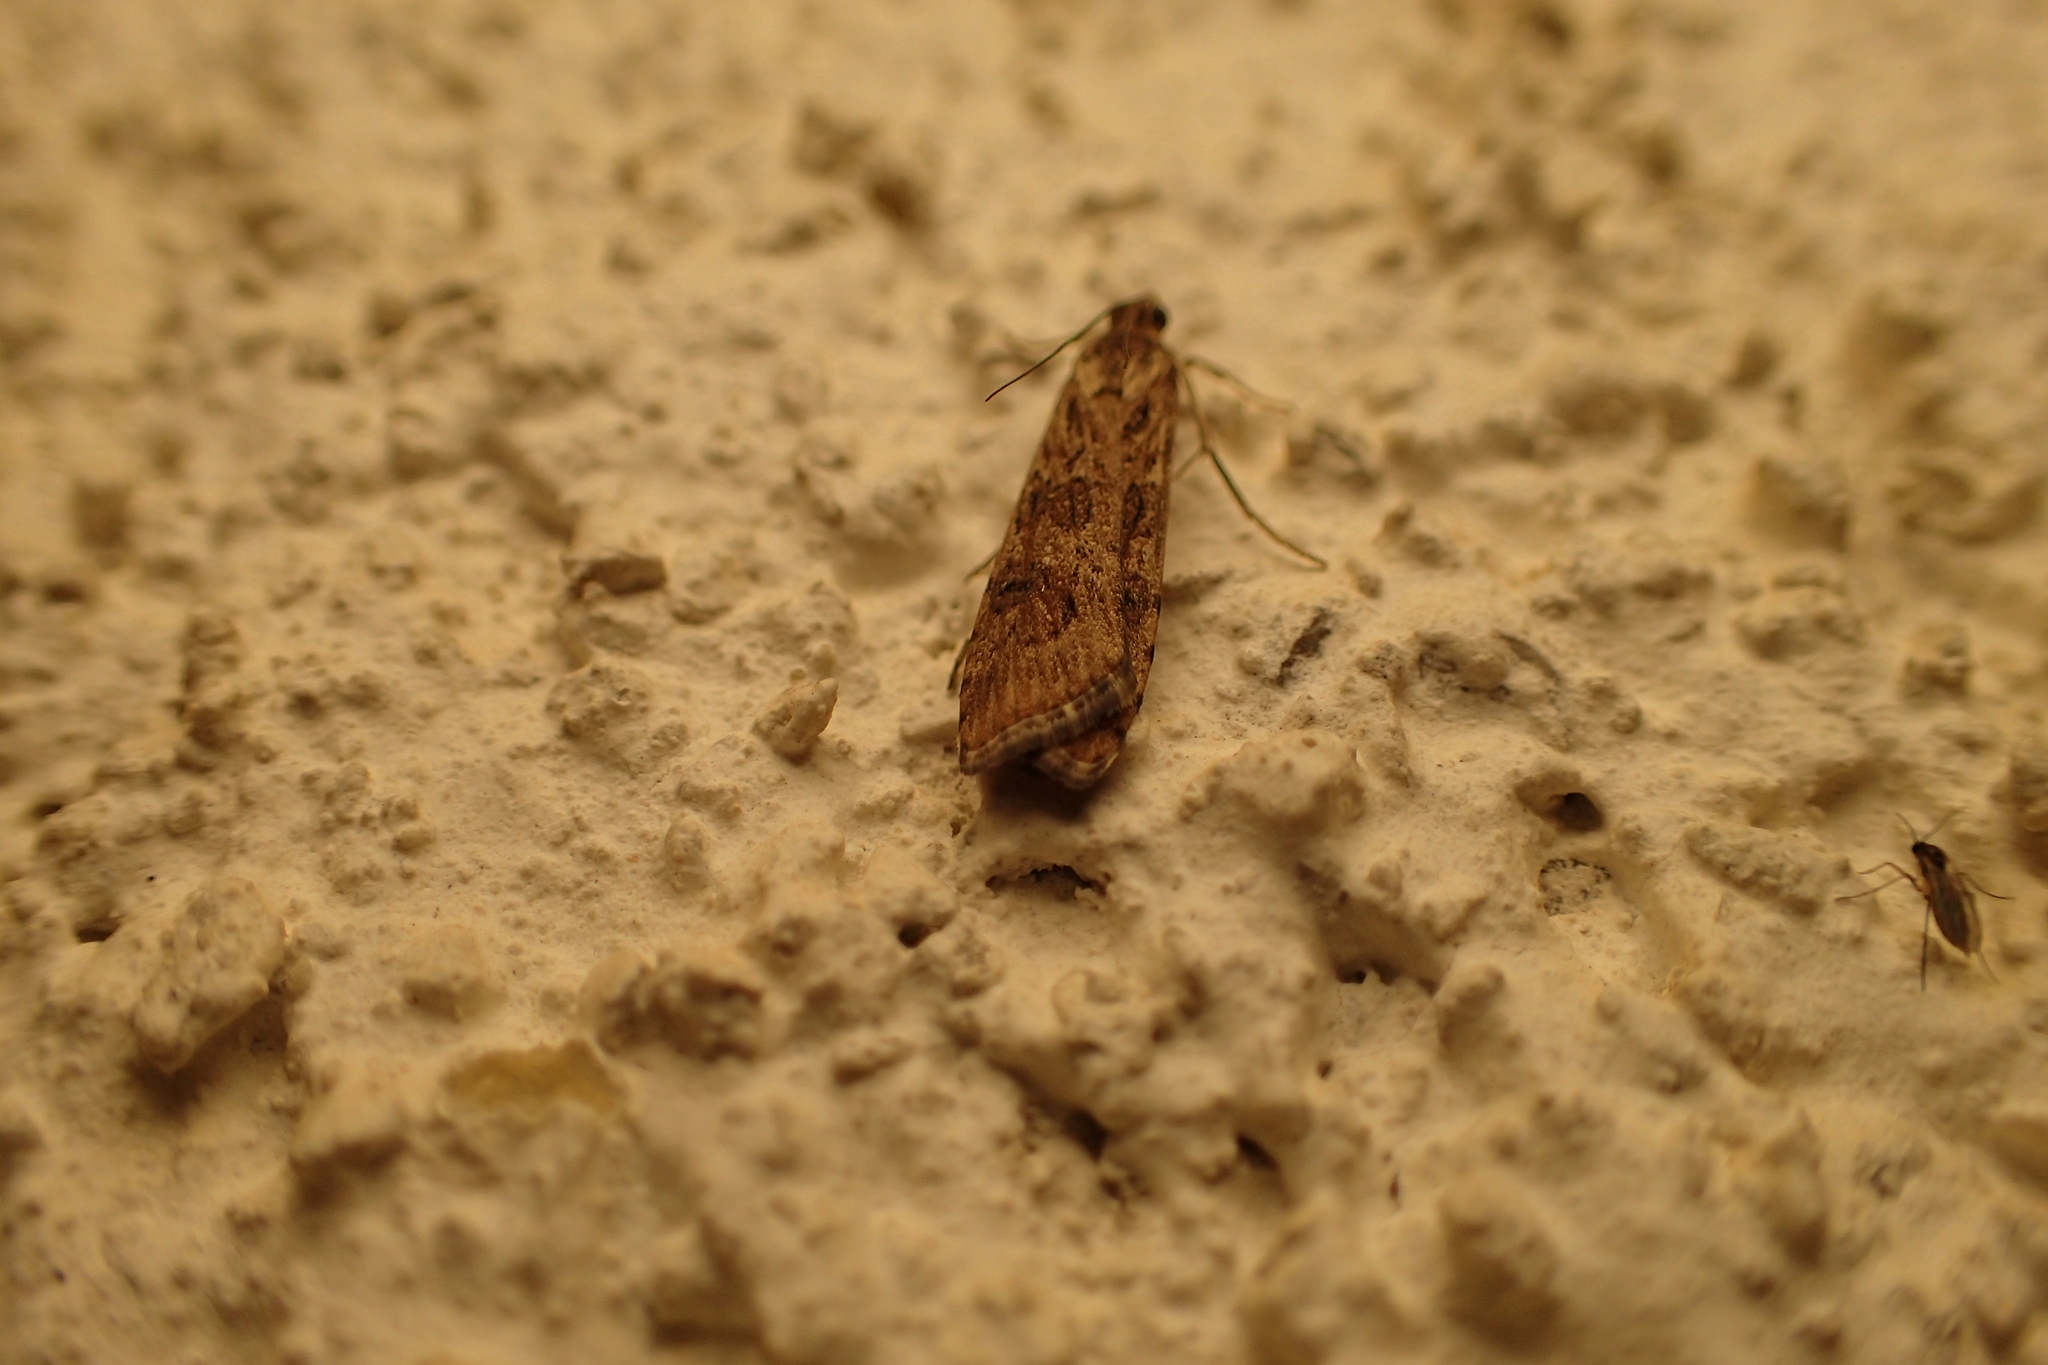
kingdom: Animalia
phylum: Arthropoda
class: Insecta
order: Lepidoptera
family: Crambidae
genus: Nomophila
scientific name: Nomophila noctuella
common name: Rush veneer
